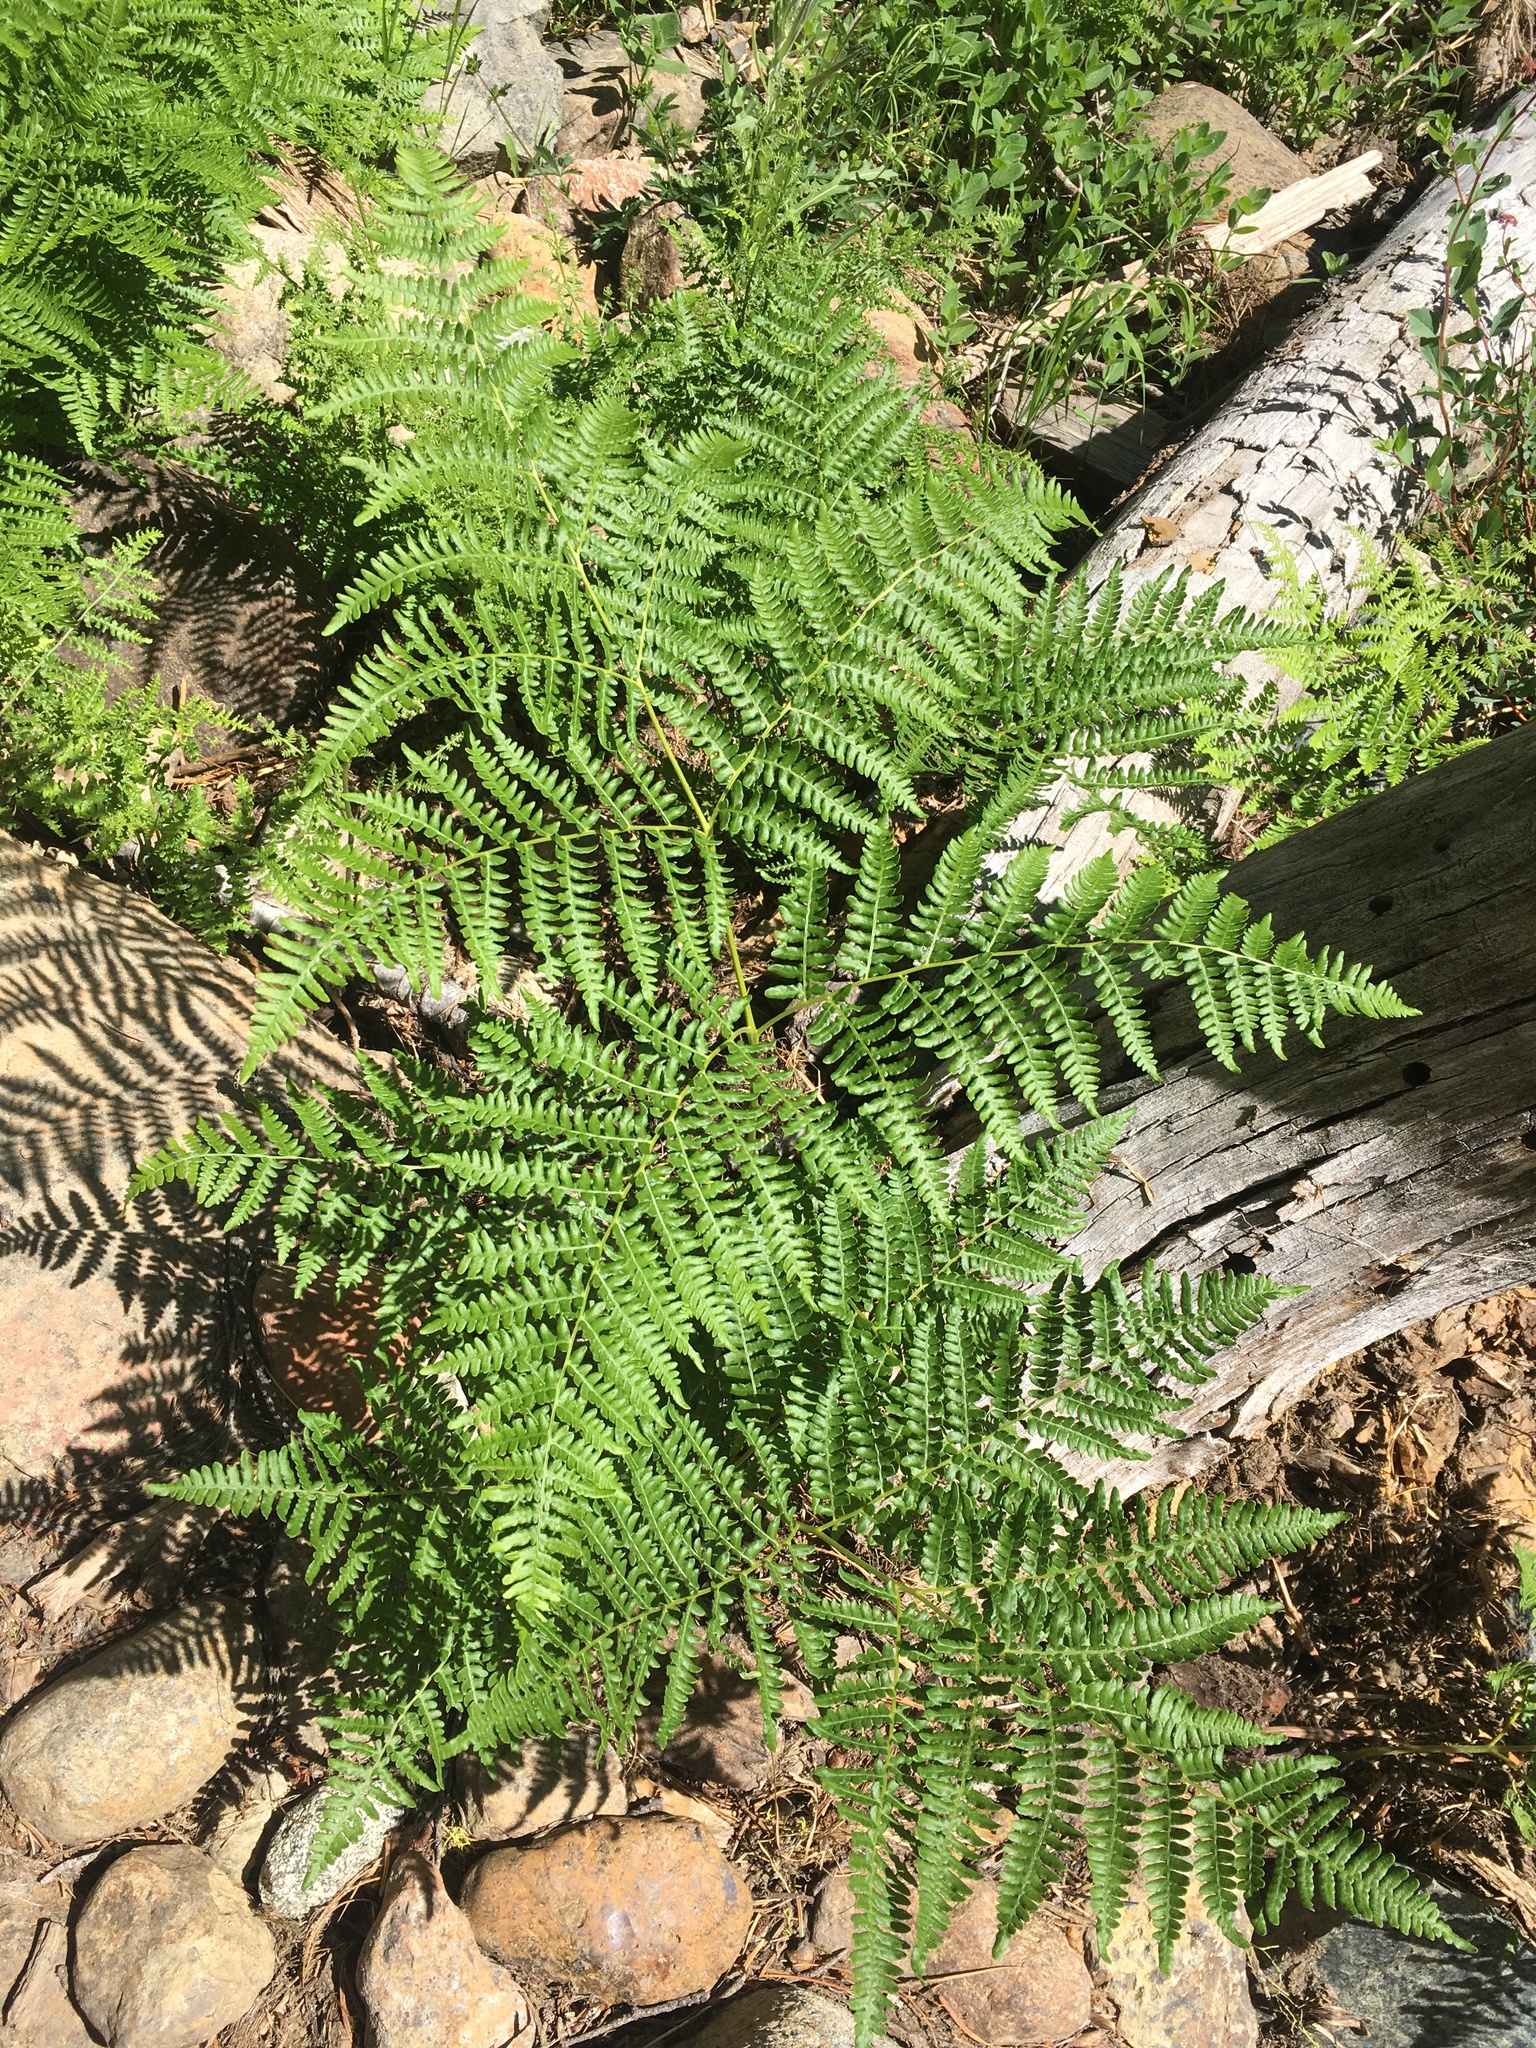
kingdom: Plantae
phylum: Tracheophyta
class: Polypodiopsida
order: Polypodiales
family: Dennstaedtiaceae
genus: Pteridium
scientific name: Pteridium aquilinum
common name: Bracken
